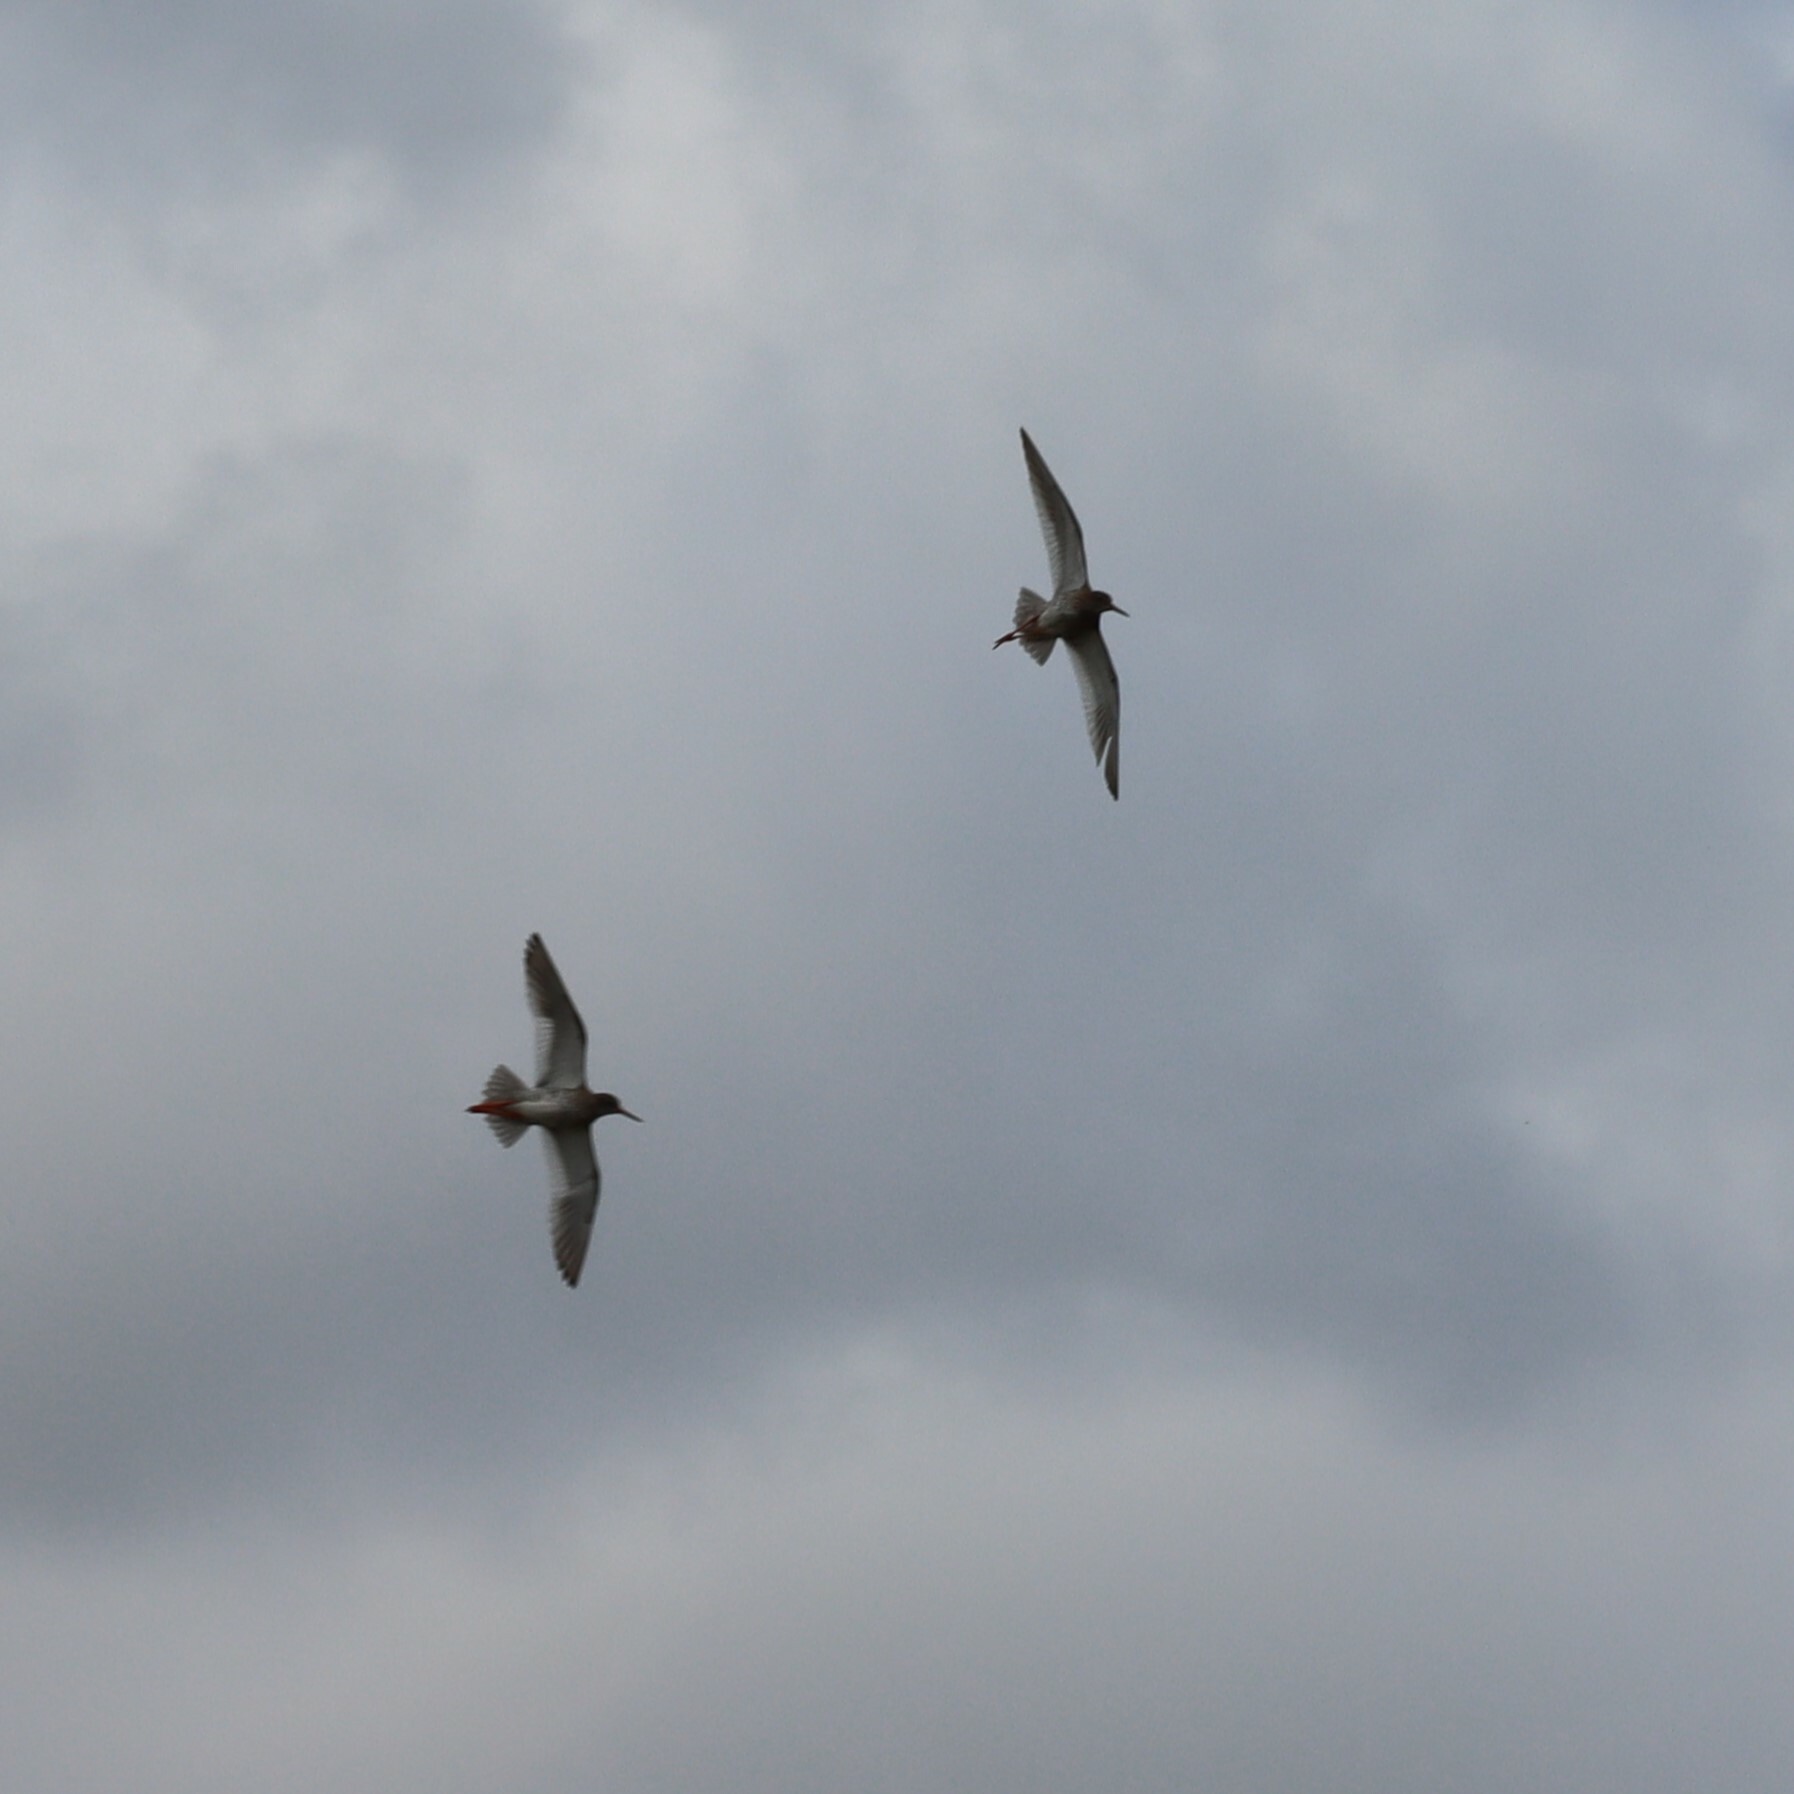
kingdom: Animalia
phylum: Chordata
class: Aves
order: Charadriiformes
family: Scolopacidae
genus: Tringa
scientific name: Tringa totanus
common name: Common redshank
